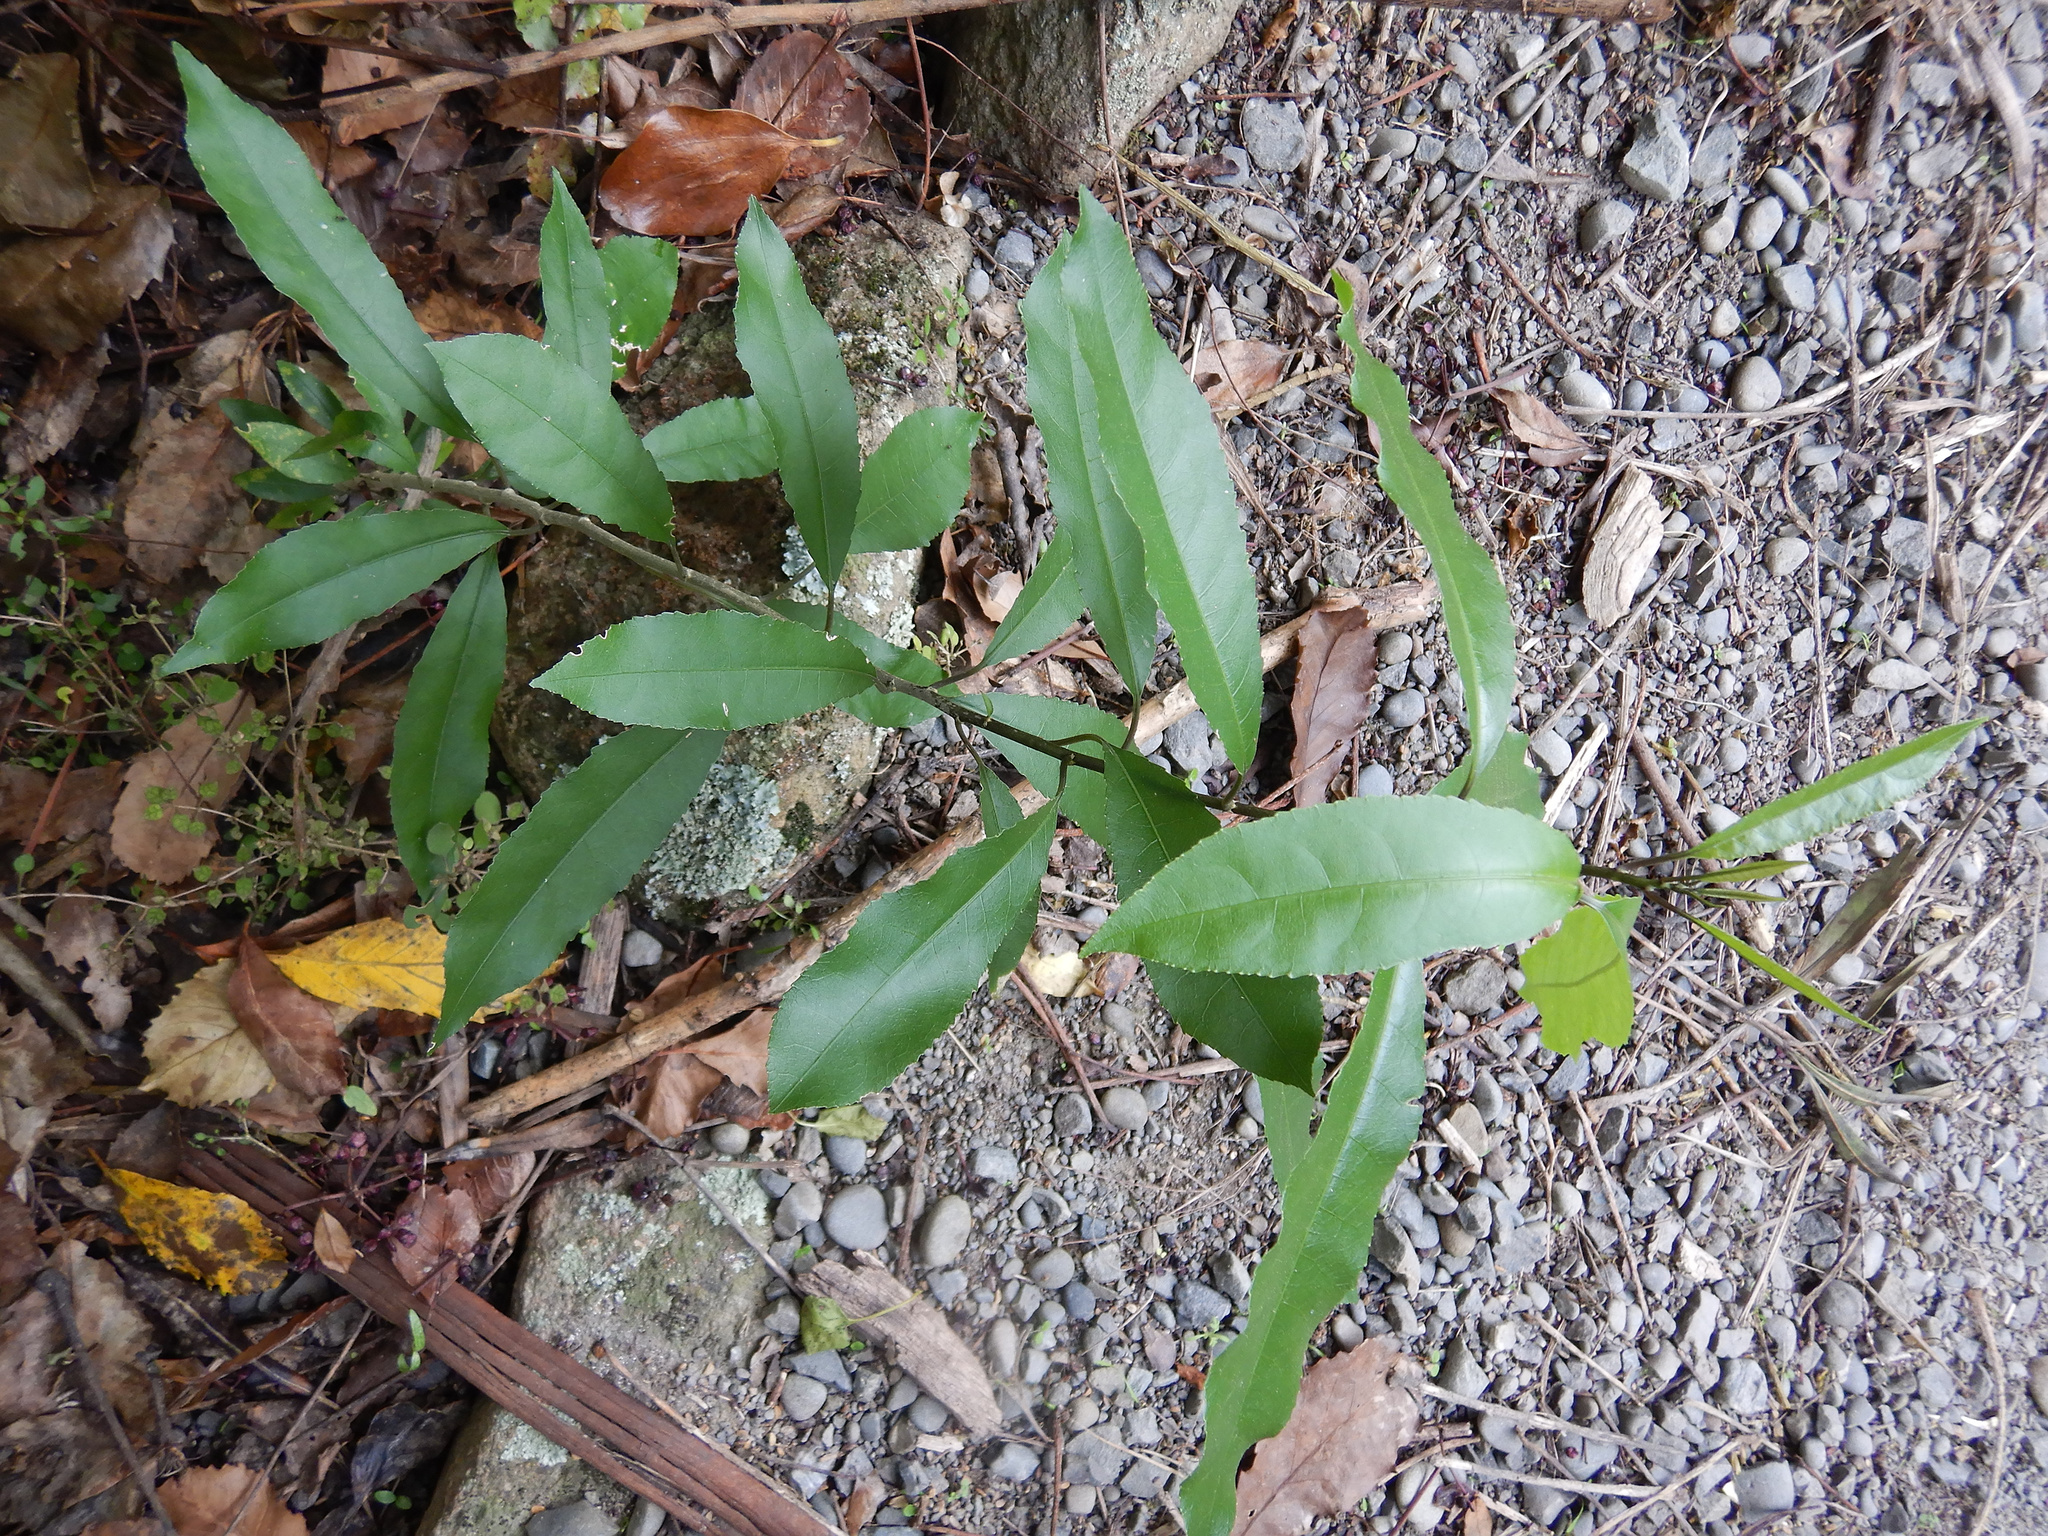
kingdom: Plantae
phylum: Tracheophyta
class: Magnoliopsida
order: Malpighiales
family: Violaceae
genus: Melicytus
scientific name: Melicytus ramiflorus
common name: Mahoe
